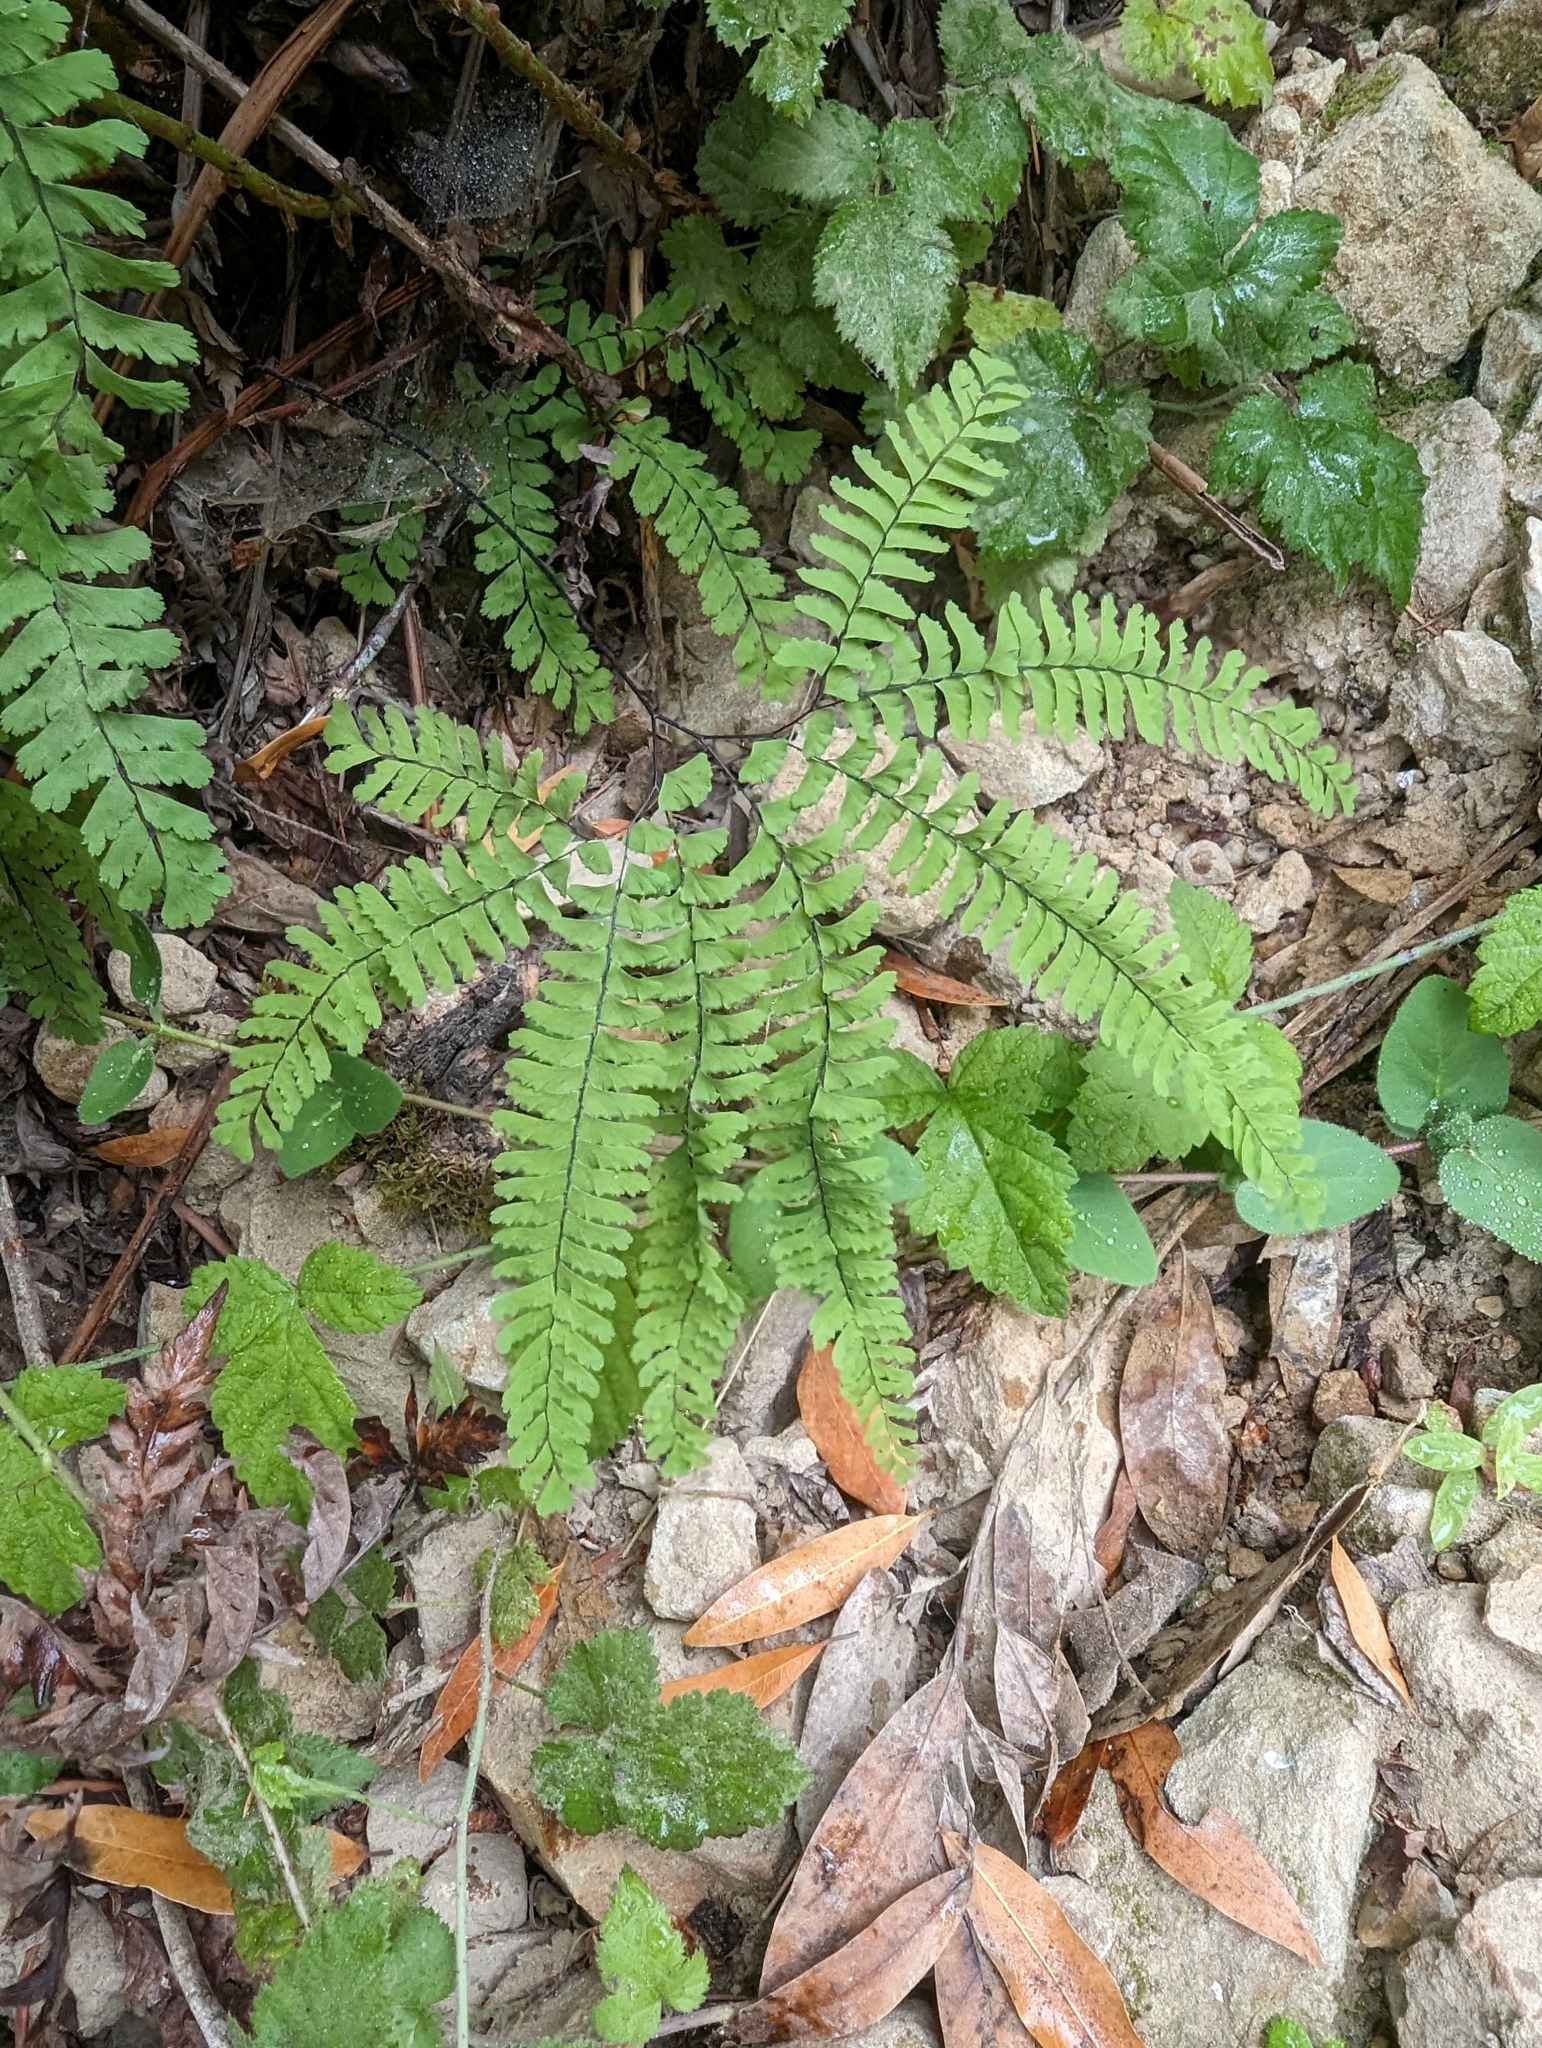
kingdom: Plantae
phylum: Tracheophyta
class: Polypodiopsida
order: Polypodiales
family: Pteridaceae
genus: Adiantum
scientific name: Adiantum aleuticum
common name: Aleutian maidenhair fern
